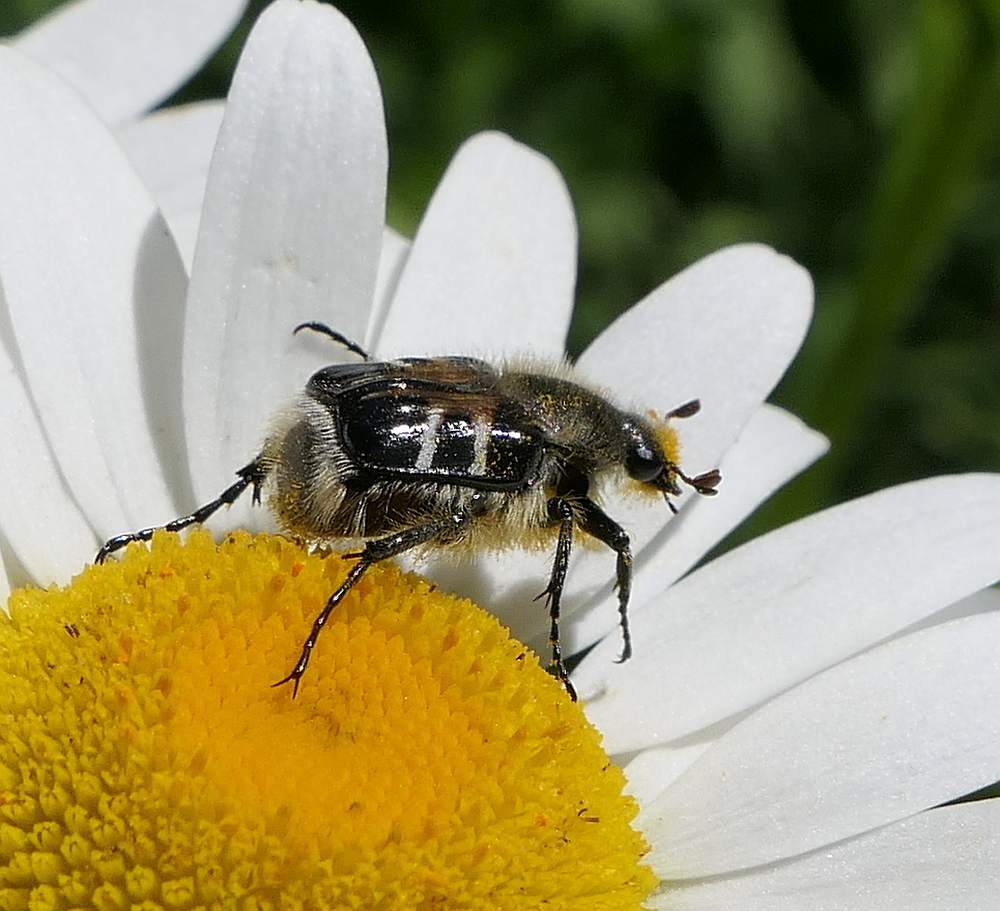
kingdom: Animalia
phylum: Arthropoda
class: Insecta
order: Coleoptera
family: Scarabaeidae
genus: Trichiotinus
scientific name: Trichiotinus assimilis
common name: Bee-mimic beetle
